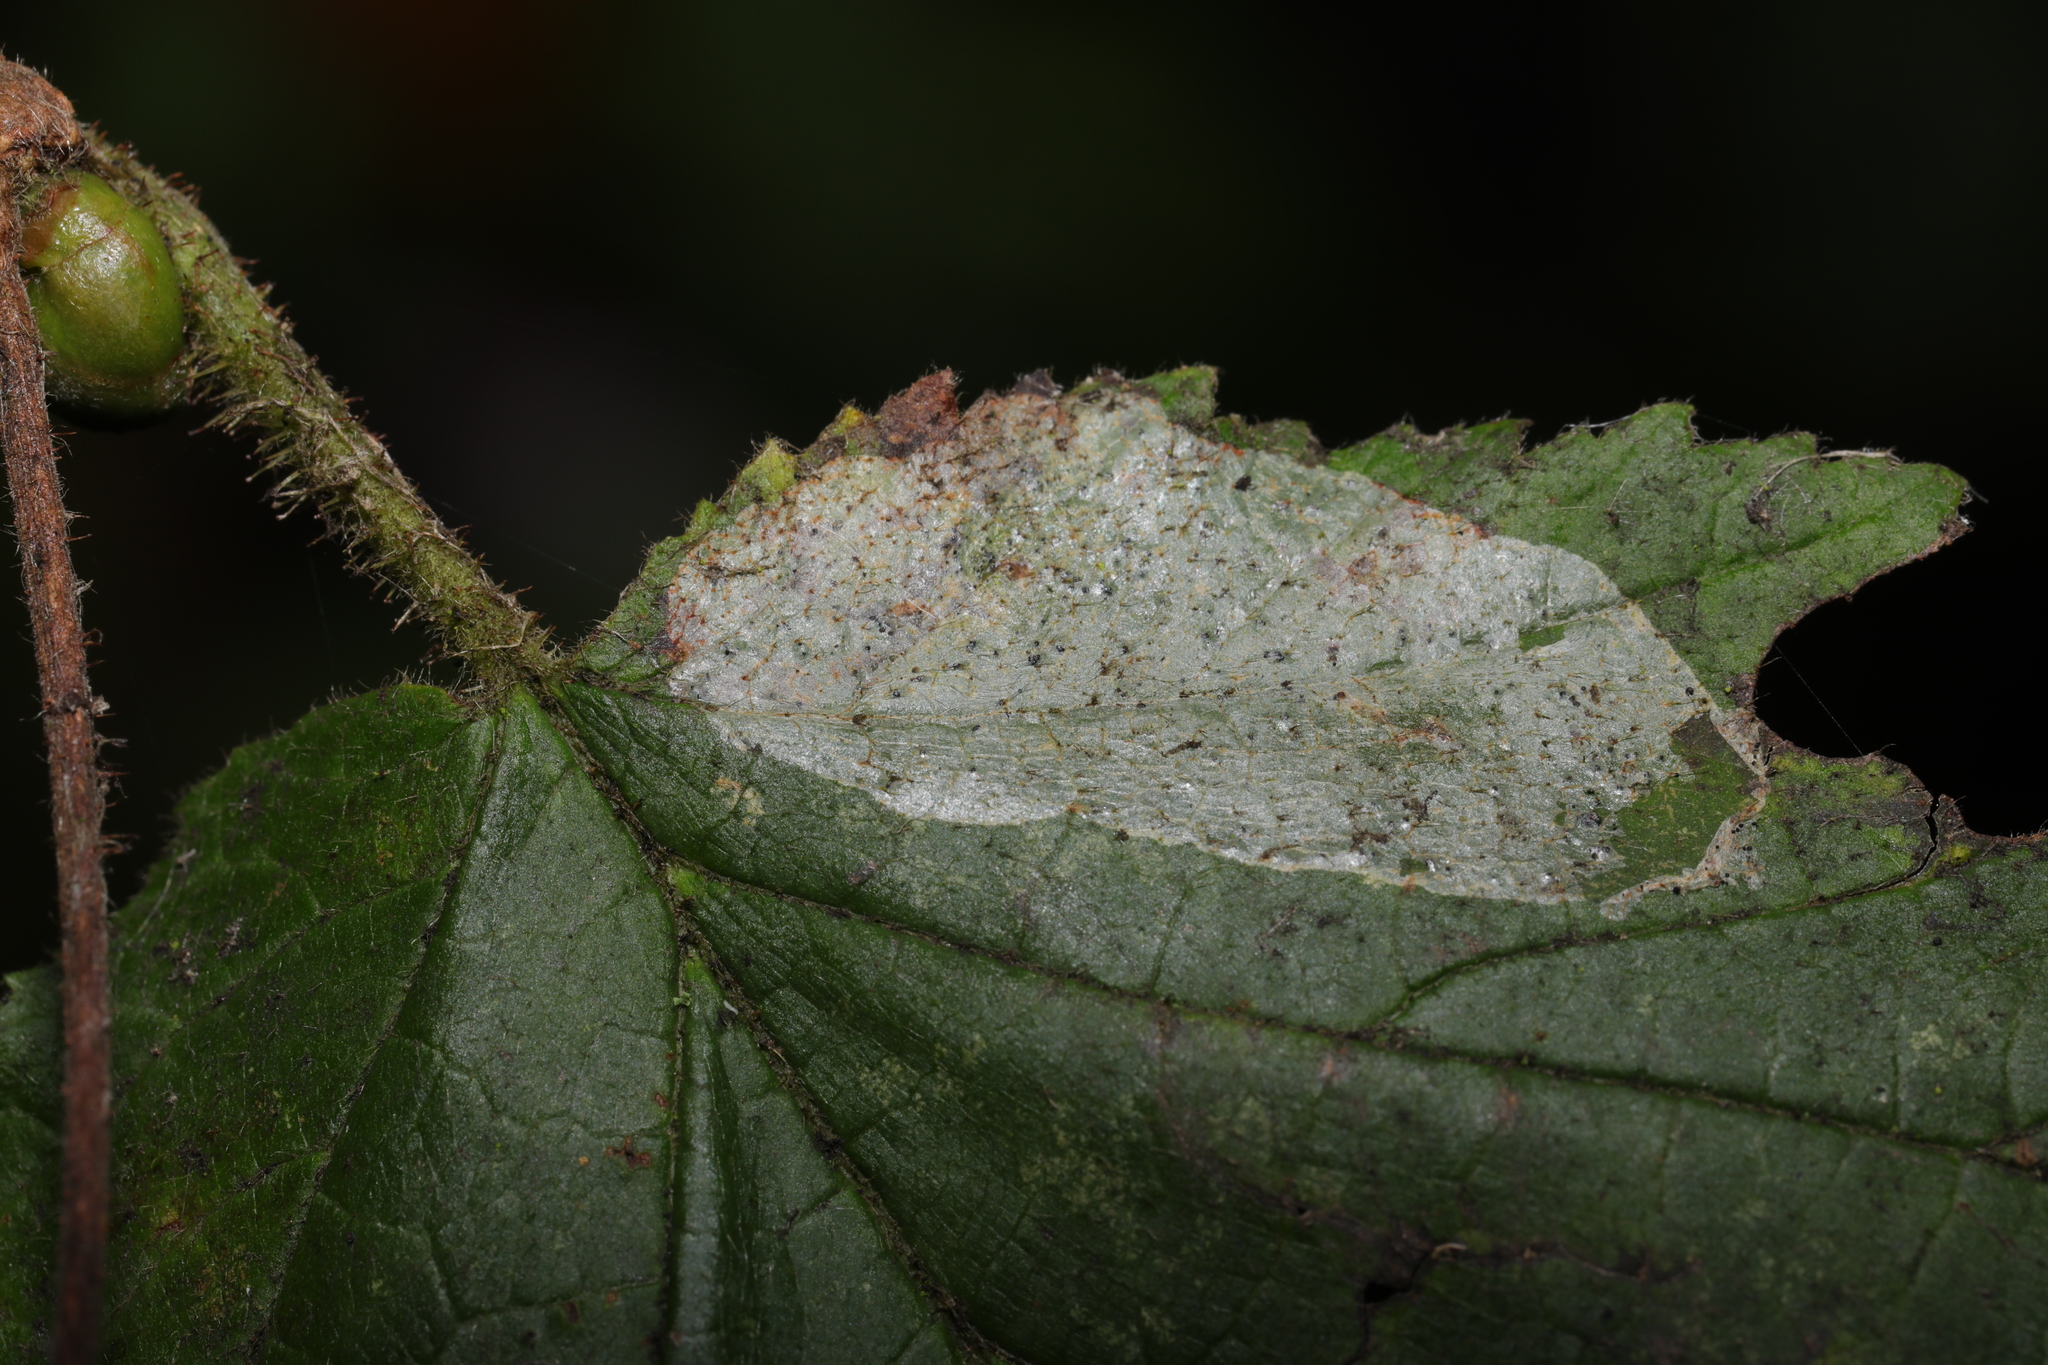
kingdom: Animalia
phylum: Arthropoda
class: Insecta
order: Lepidoptera
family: Gracillariidae
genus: Phyllonorycter
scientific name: Phyllonorycter coryli
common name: Nut-leaf blister moth
